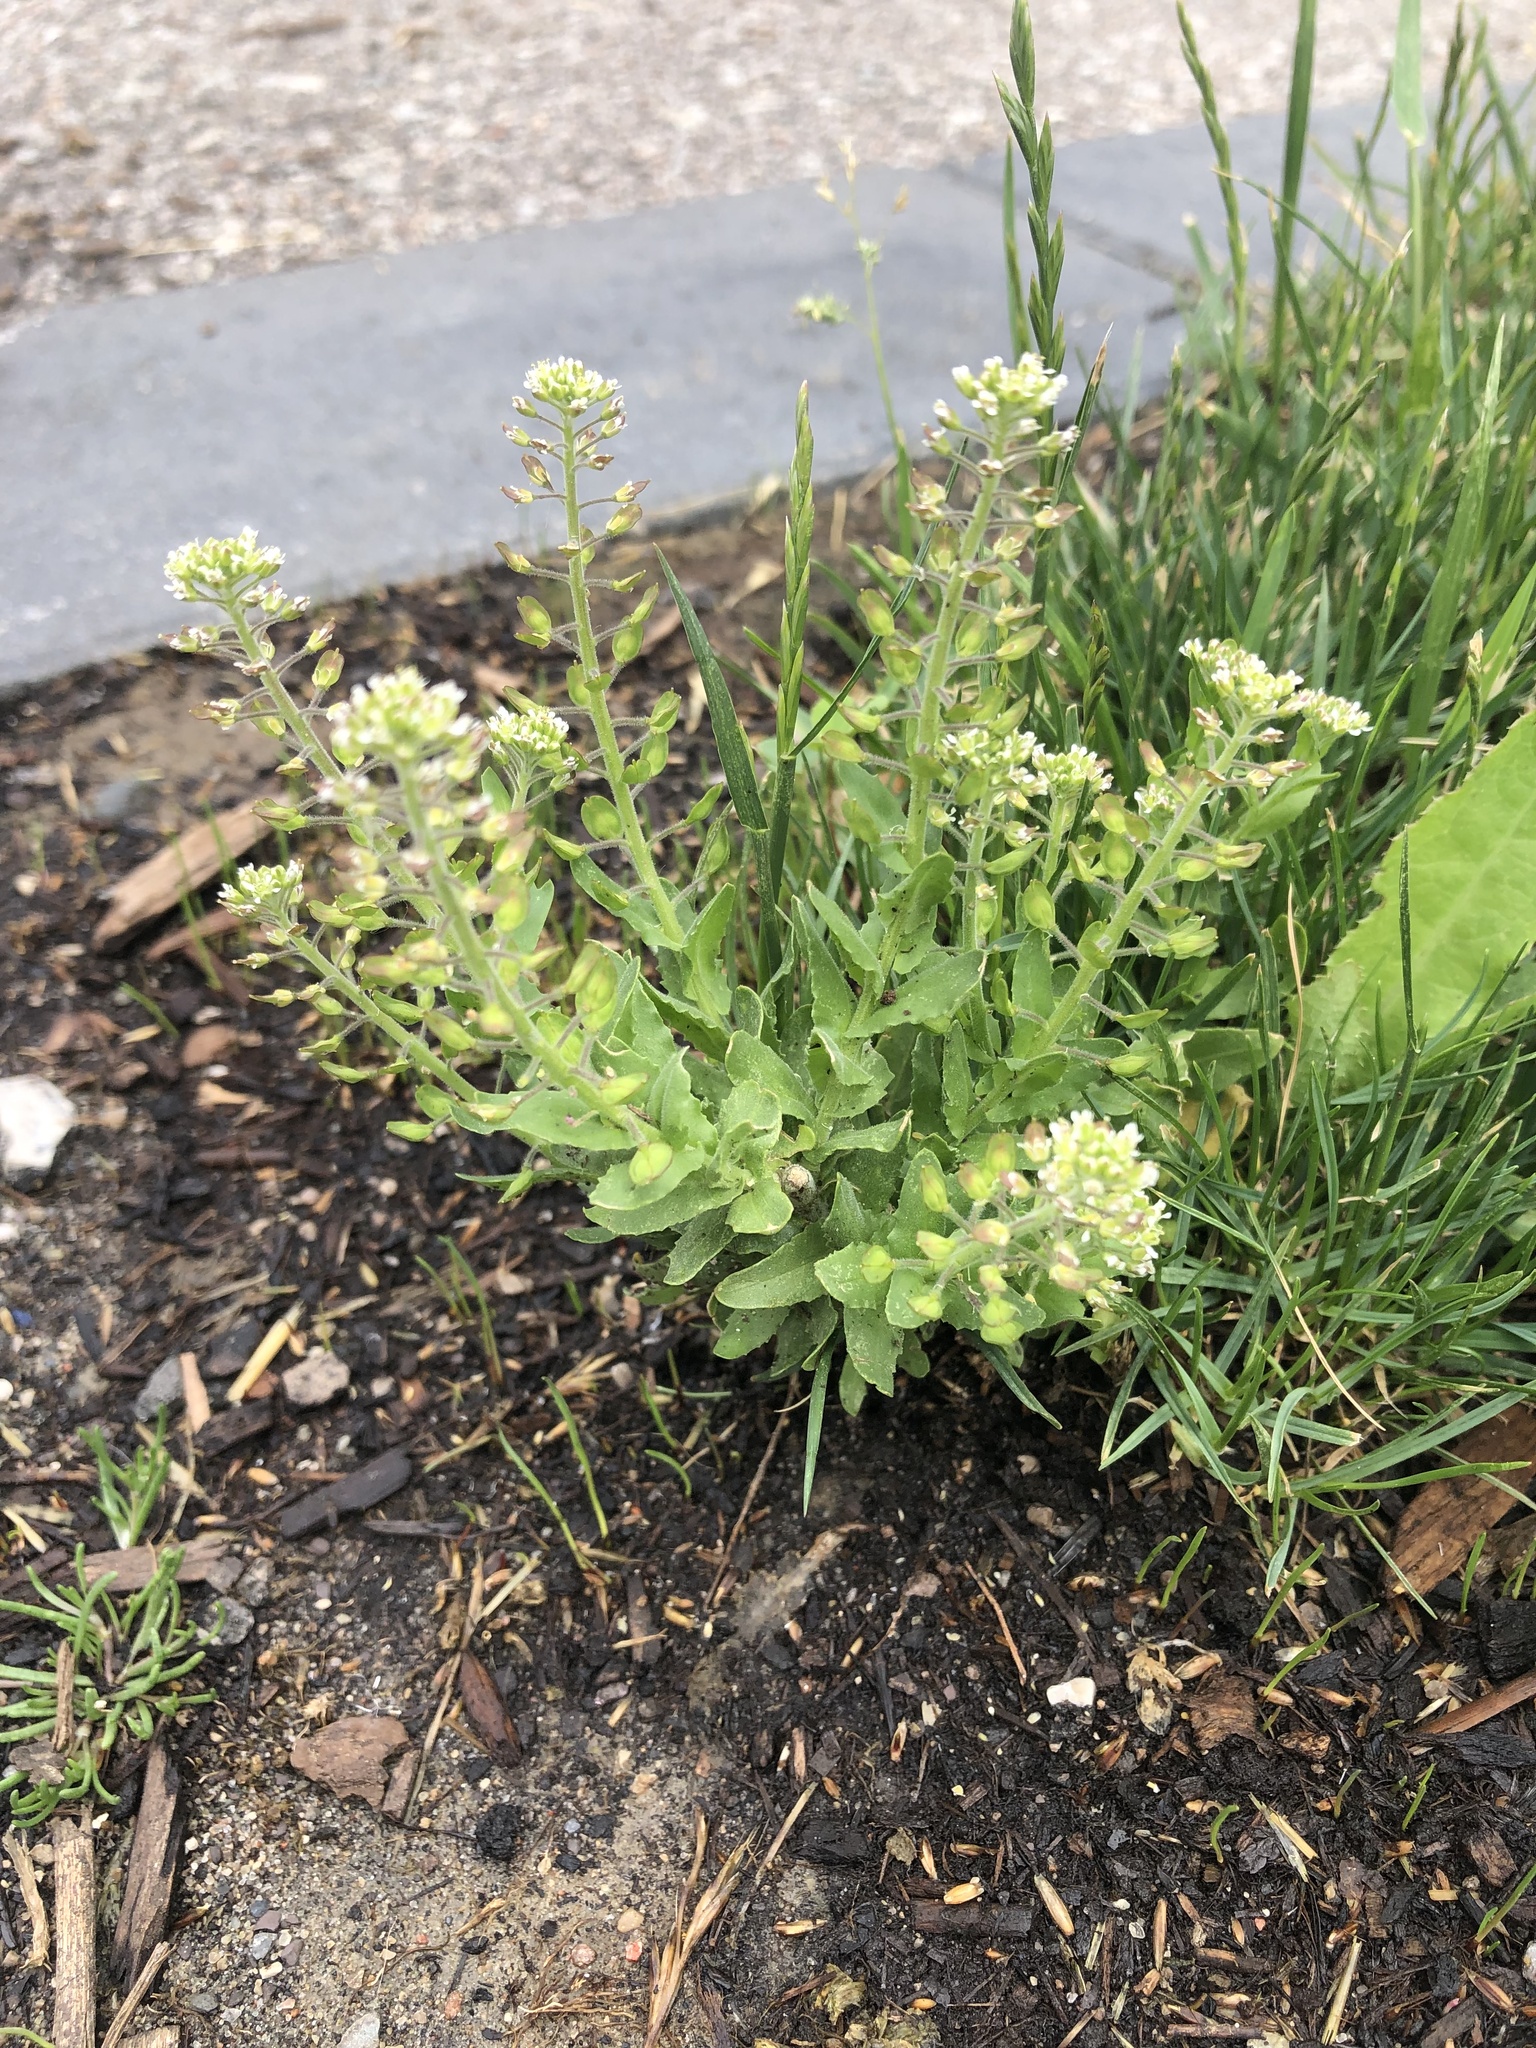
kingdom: Plantae
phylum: Tracheophyta
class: Magnoliopsida
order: Brassicales
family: Brassicaceae
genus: Lepidium
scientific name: Lepidium campestre
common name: Field pepperwort
